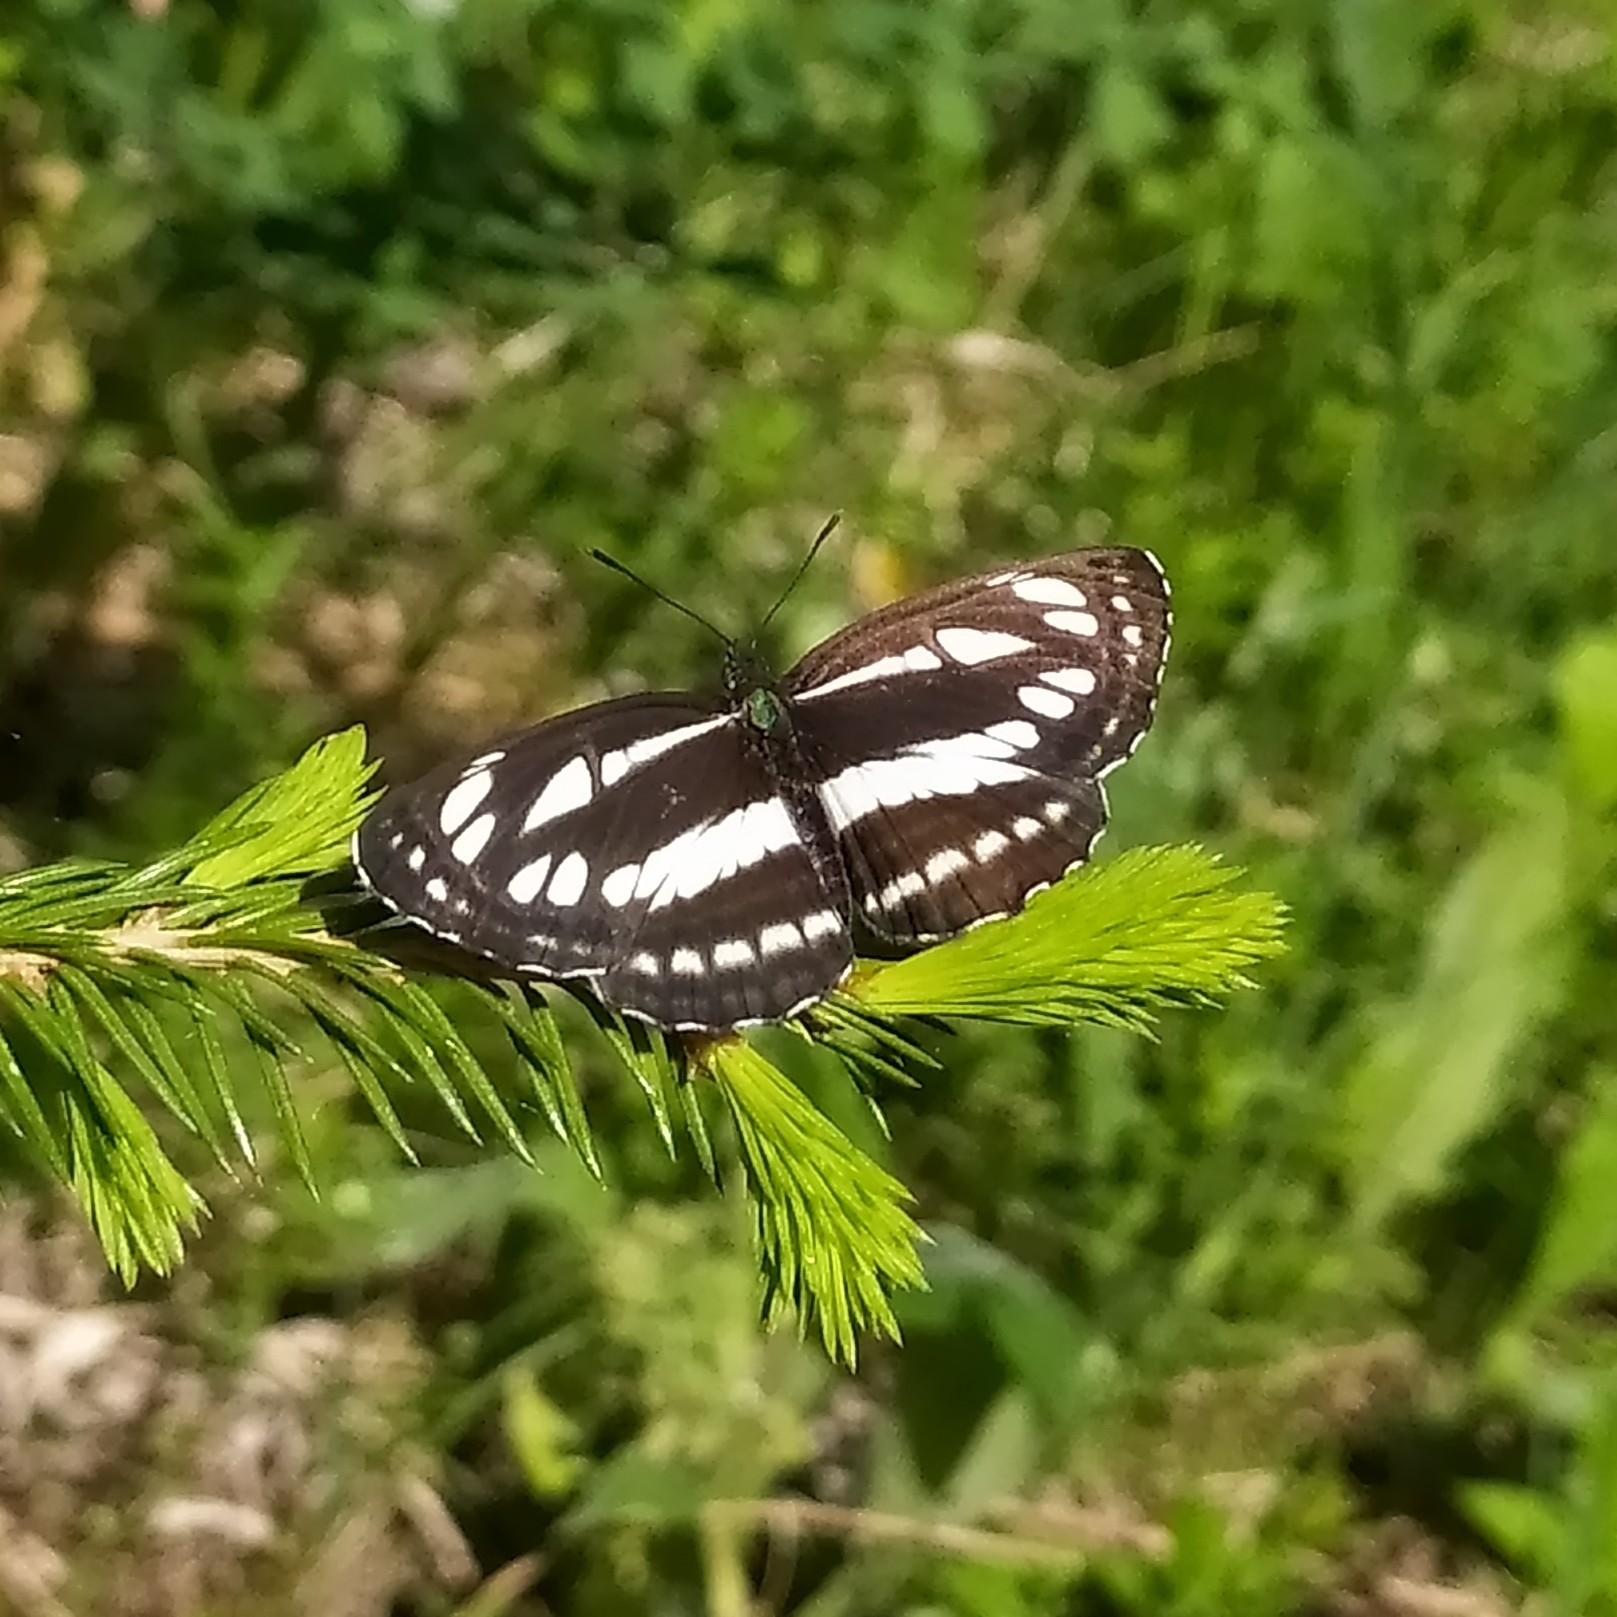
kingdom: Animalia
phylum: Arthropoda
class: Insecta
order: Lepidoptera
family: Nymphalidae
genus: Neptis
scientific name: Neptis sappho
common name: Common glider
